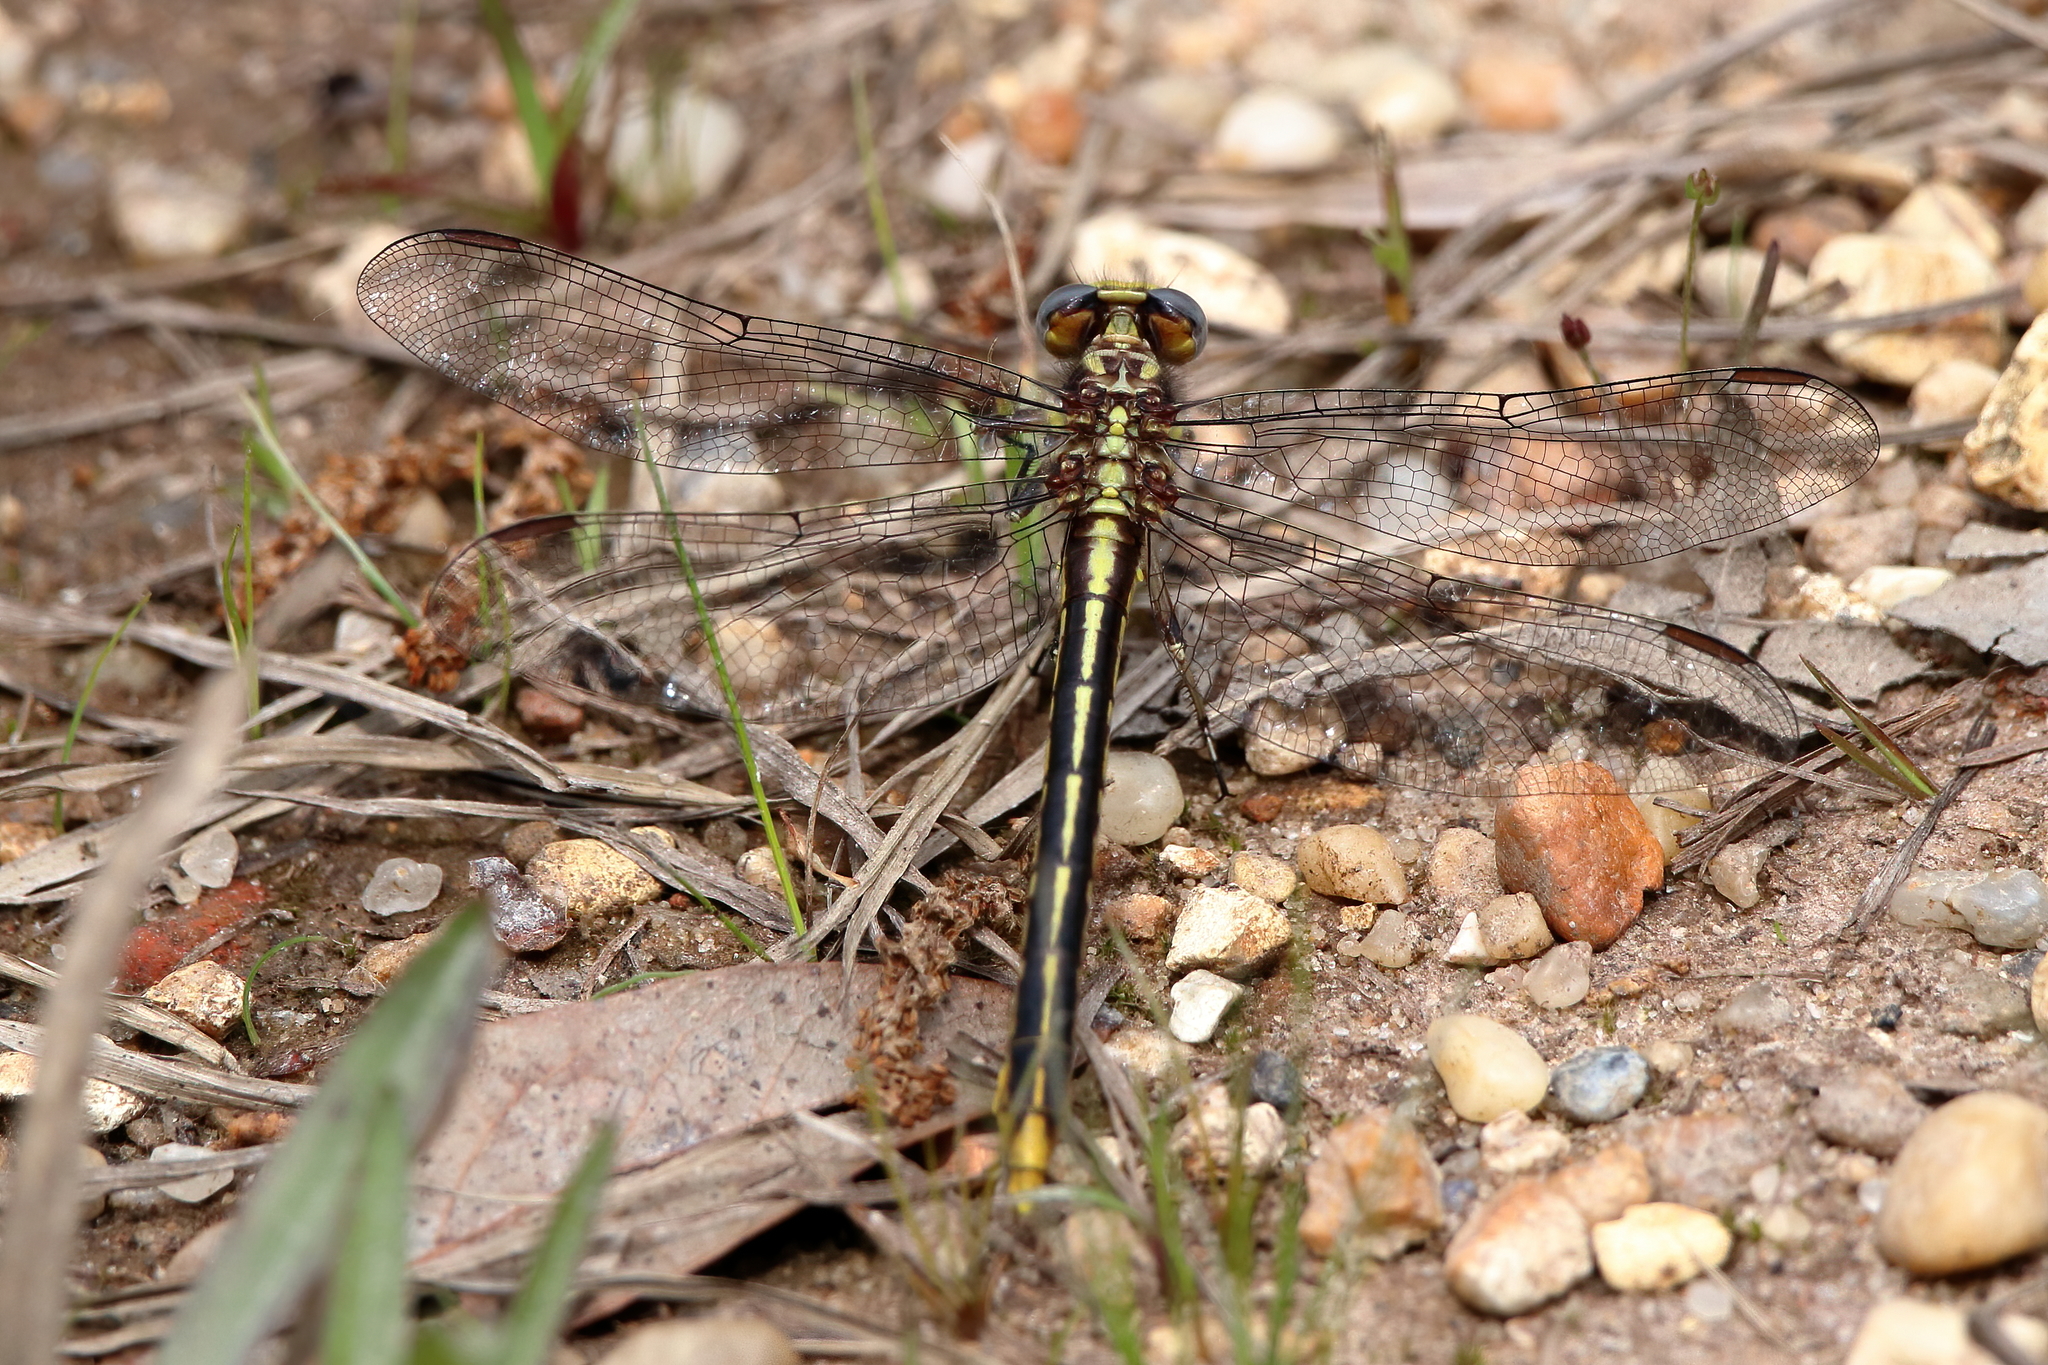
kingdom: Animalia
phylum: Arthropoda
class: Insecta
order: Odonata
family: Gomphidae
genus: Phanogomphus
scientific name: Phanogomphus exilis
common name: Lancet clubtail
